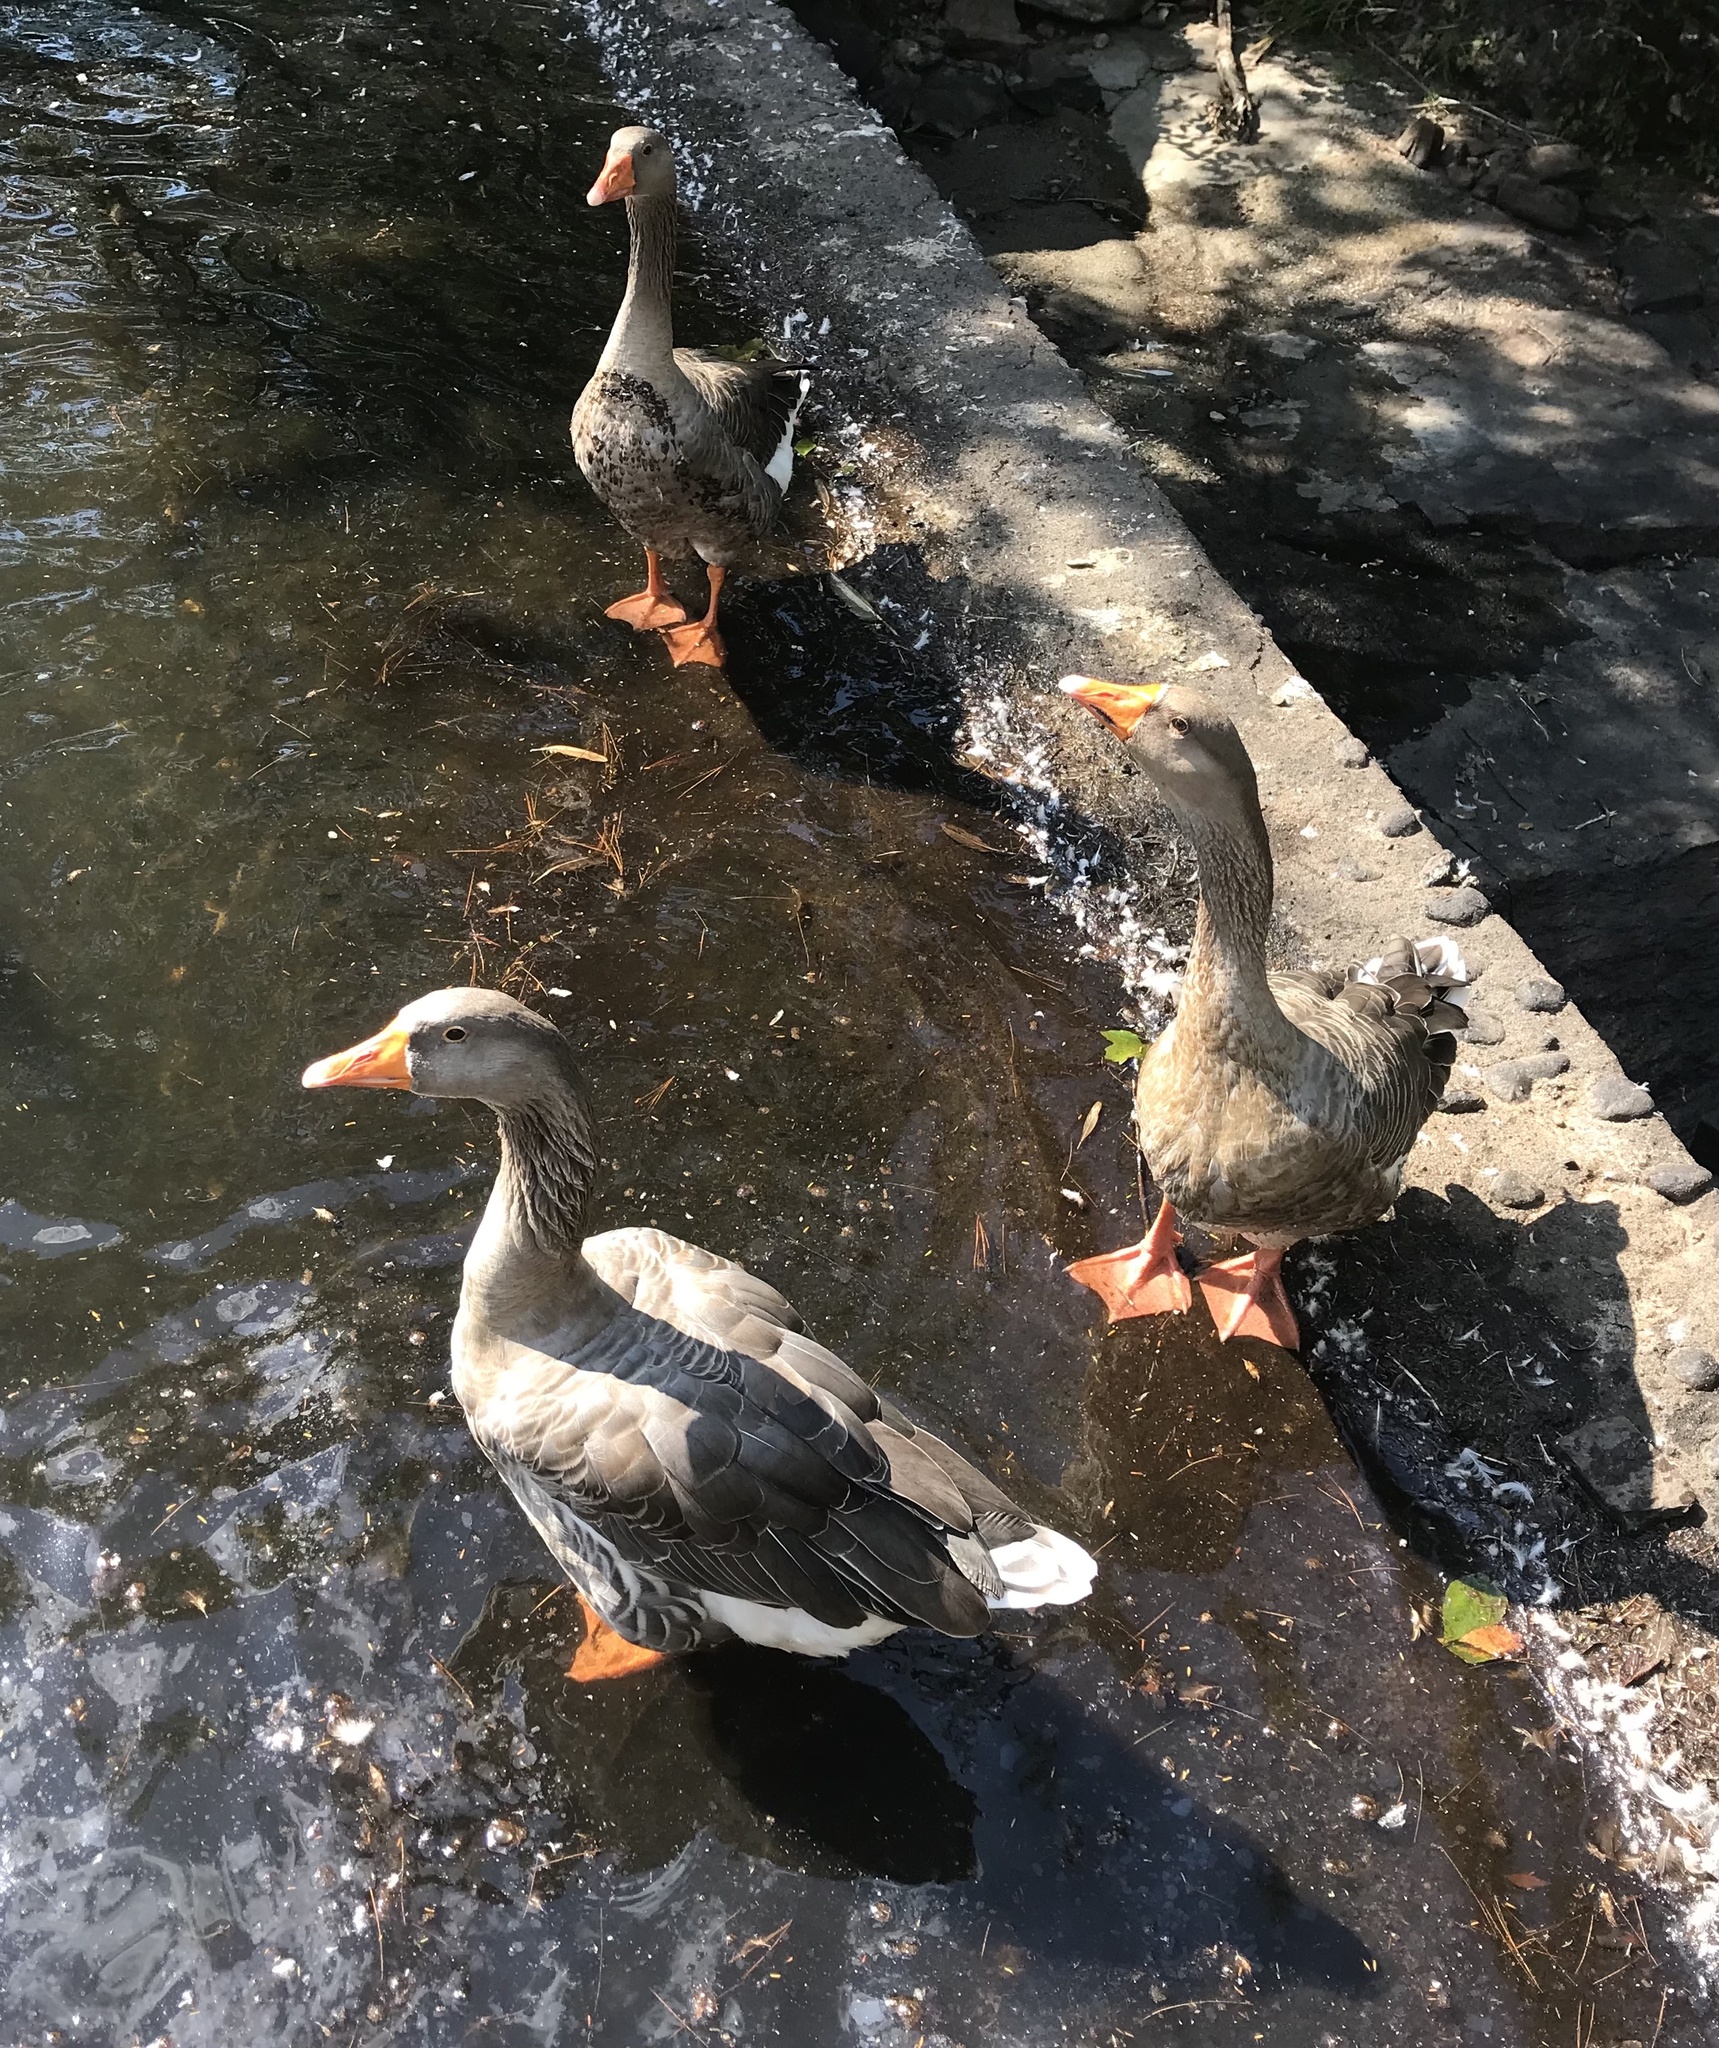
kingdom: Animalia
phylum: Chordata
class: Aves
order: Anseriformes
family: Anatidae
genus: Anser
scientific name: Anser
